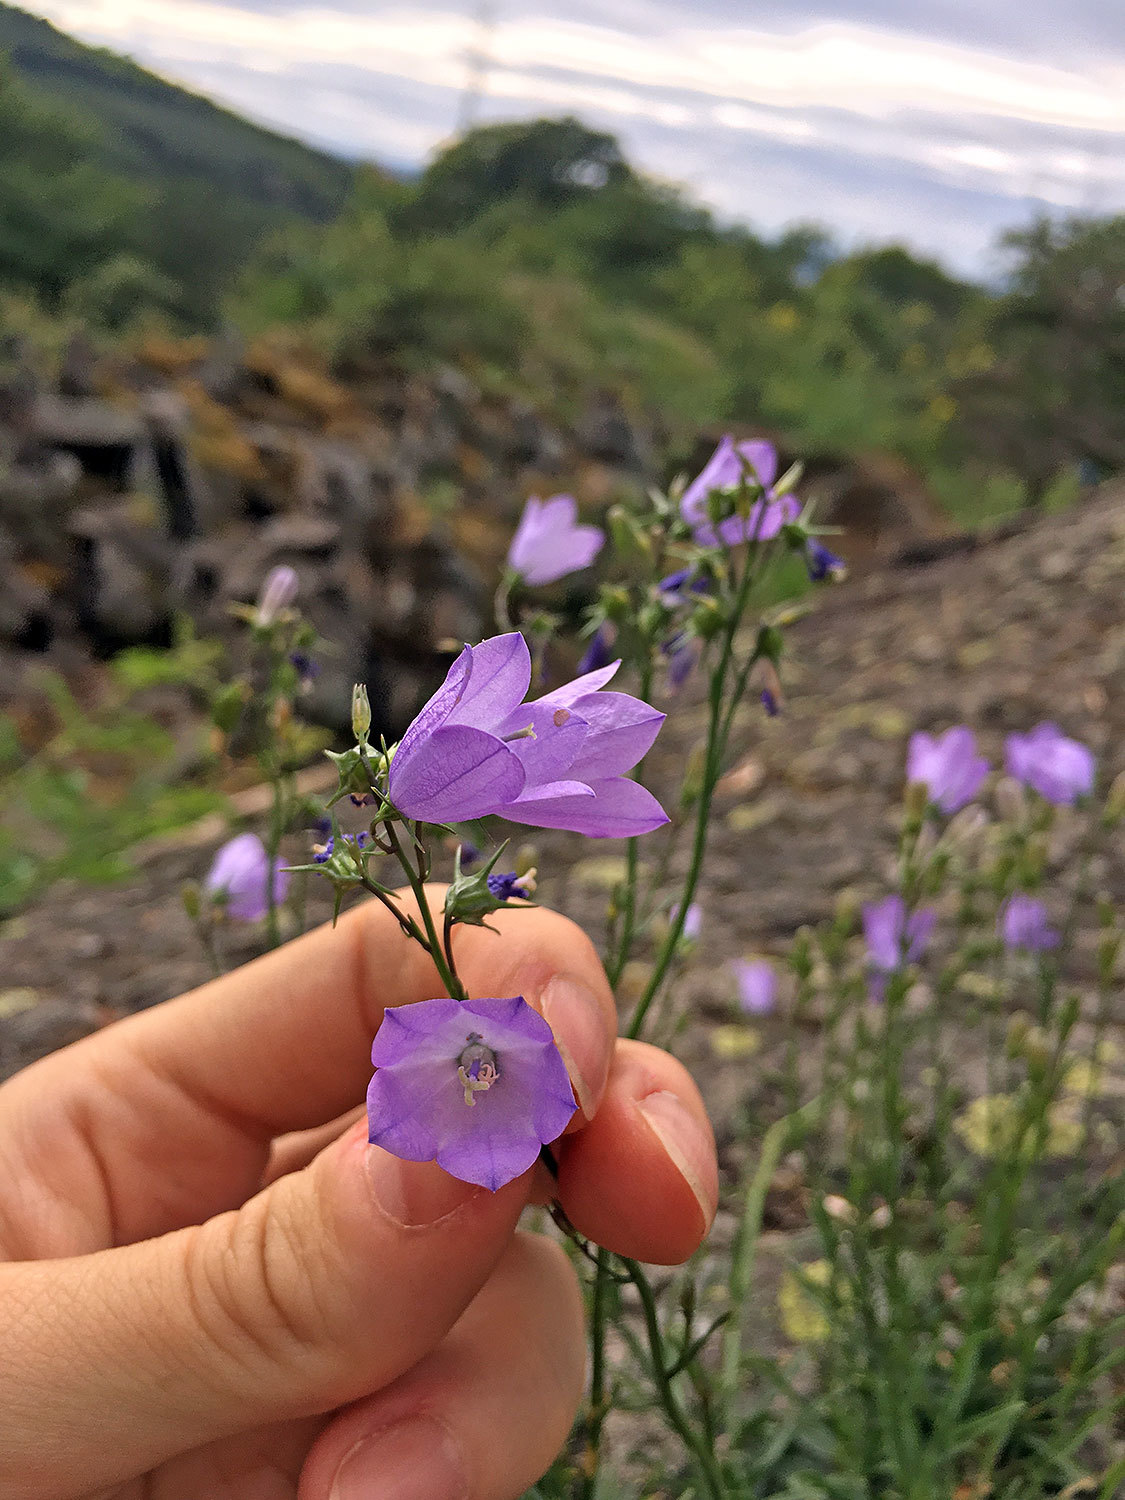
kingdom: Plantae
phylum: Tracheophyta
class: Magnoliopsida
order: Asterales
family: Campanulaceae
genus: Campanula
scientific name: Campanula rotundifolia
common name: Harebell
